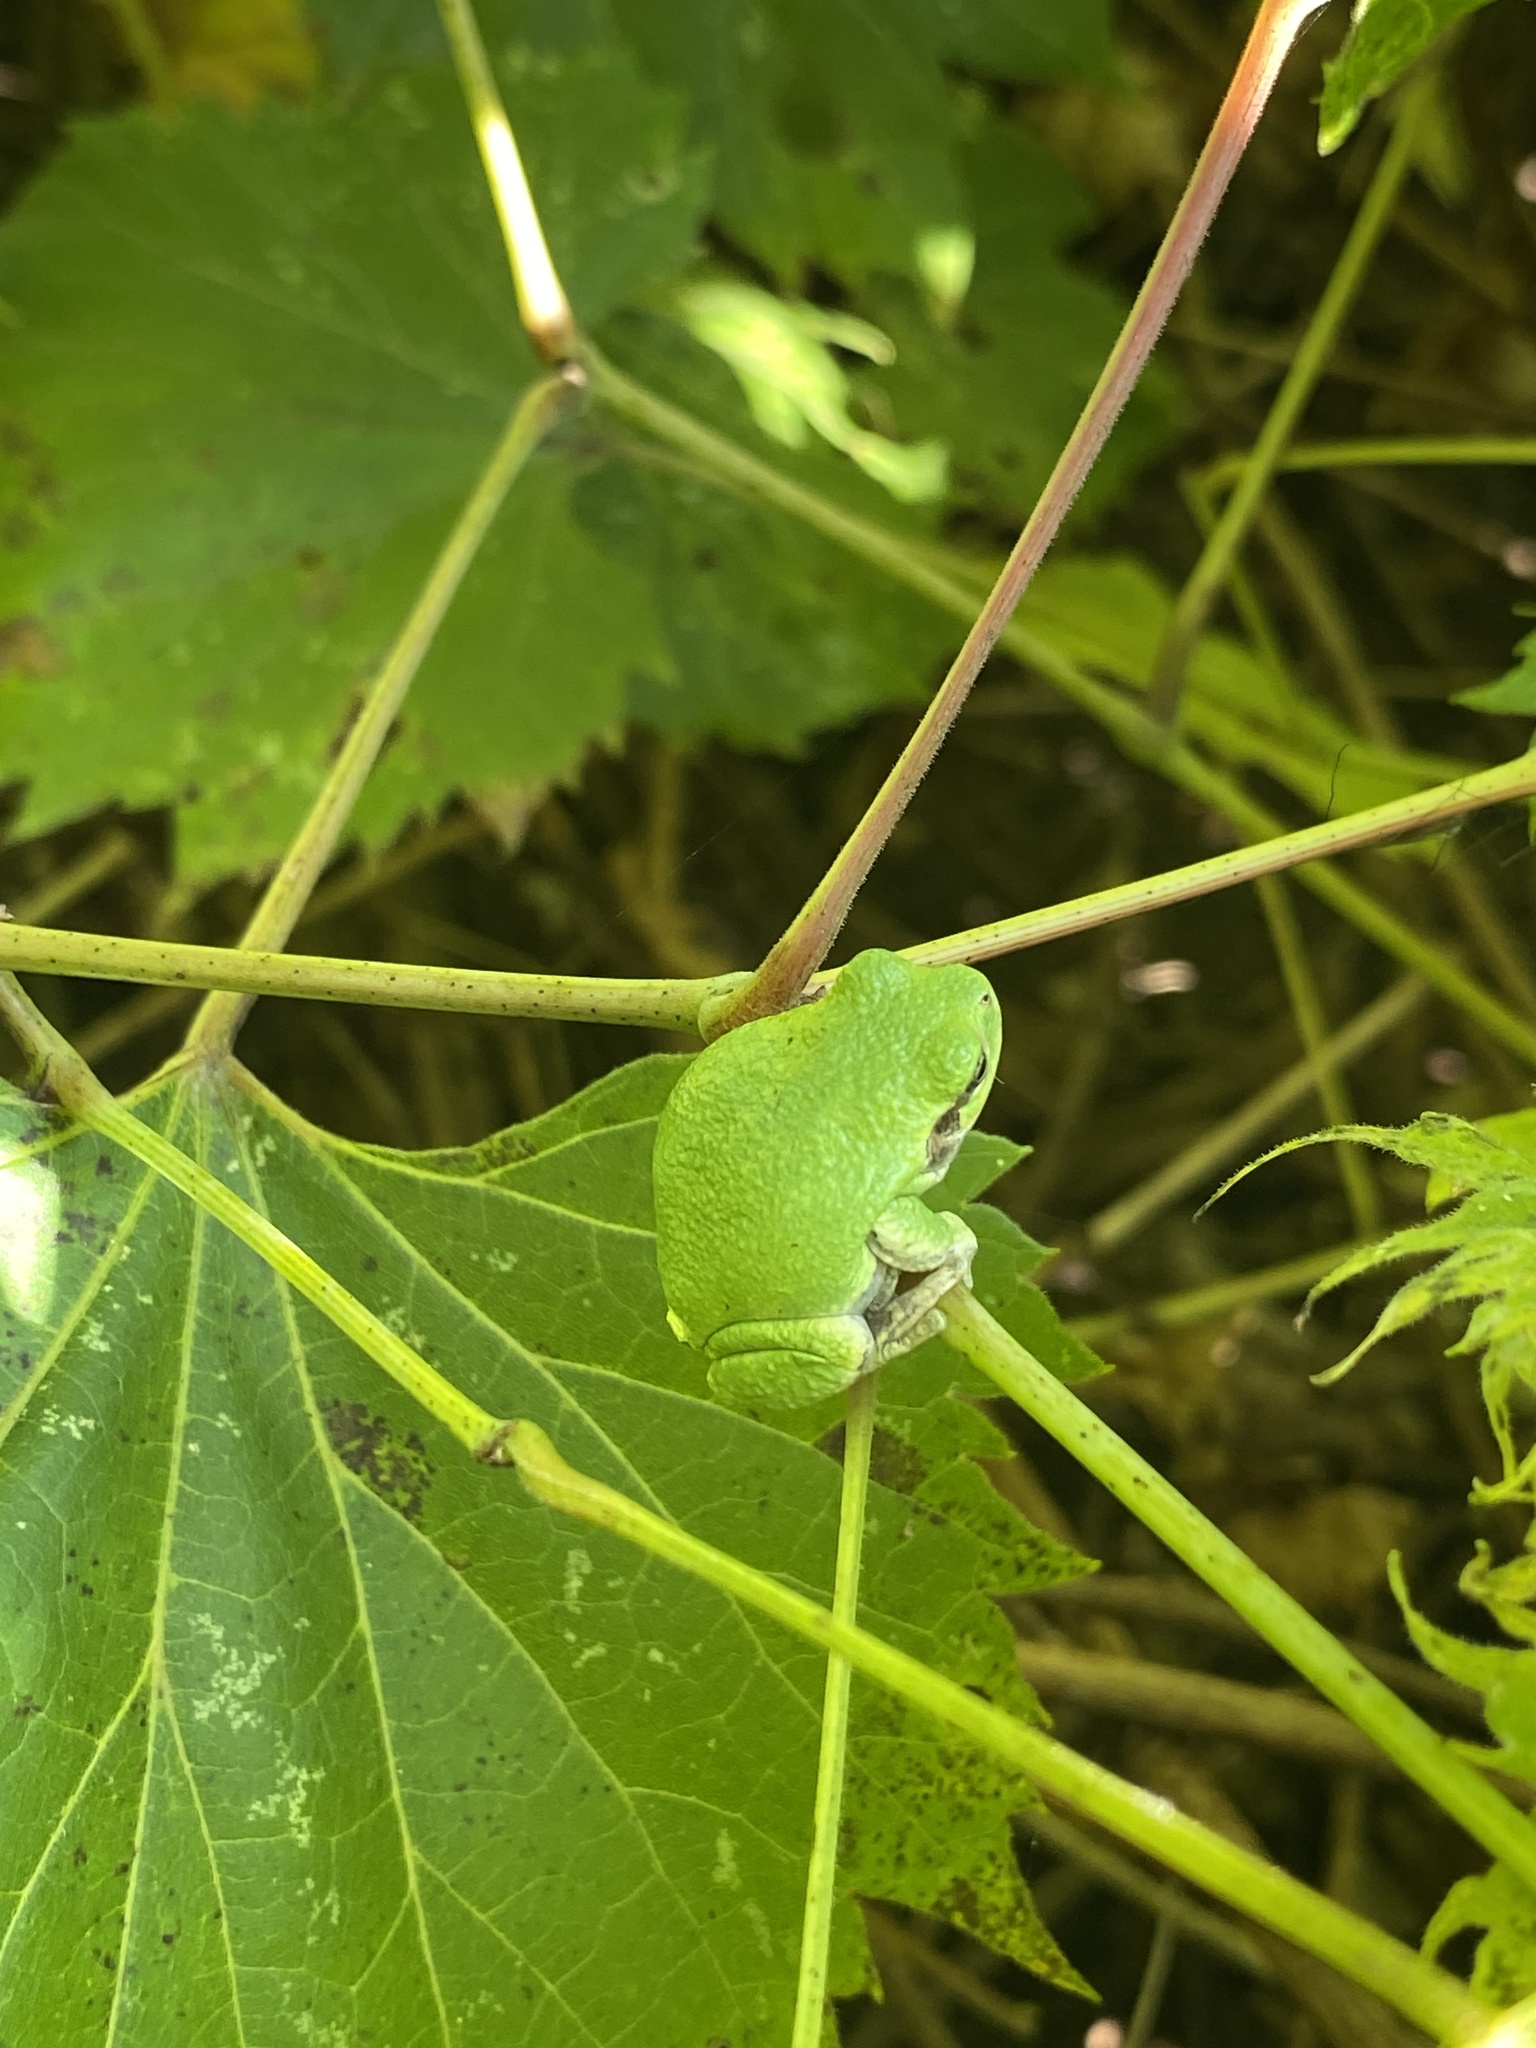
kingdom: Animalia
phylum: Chordata
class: Amphibia
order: Anura
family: Hylidae
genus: Dryophytes
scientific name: Dryophytes versicolor
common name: Gray treefrog
